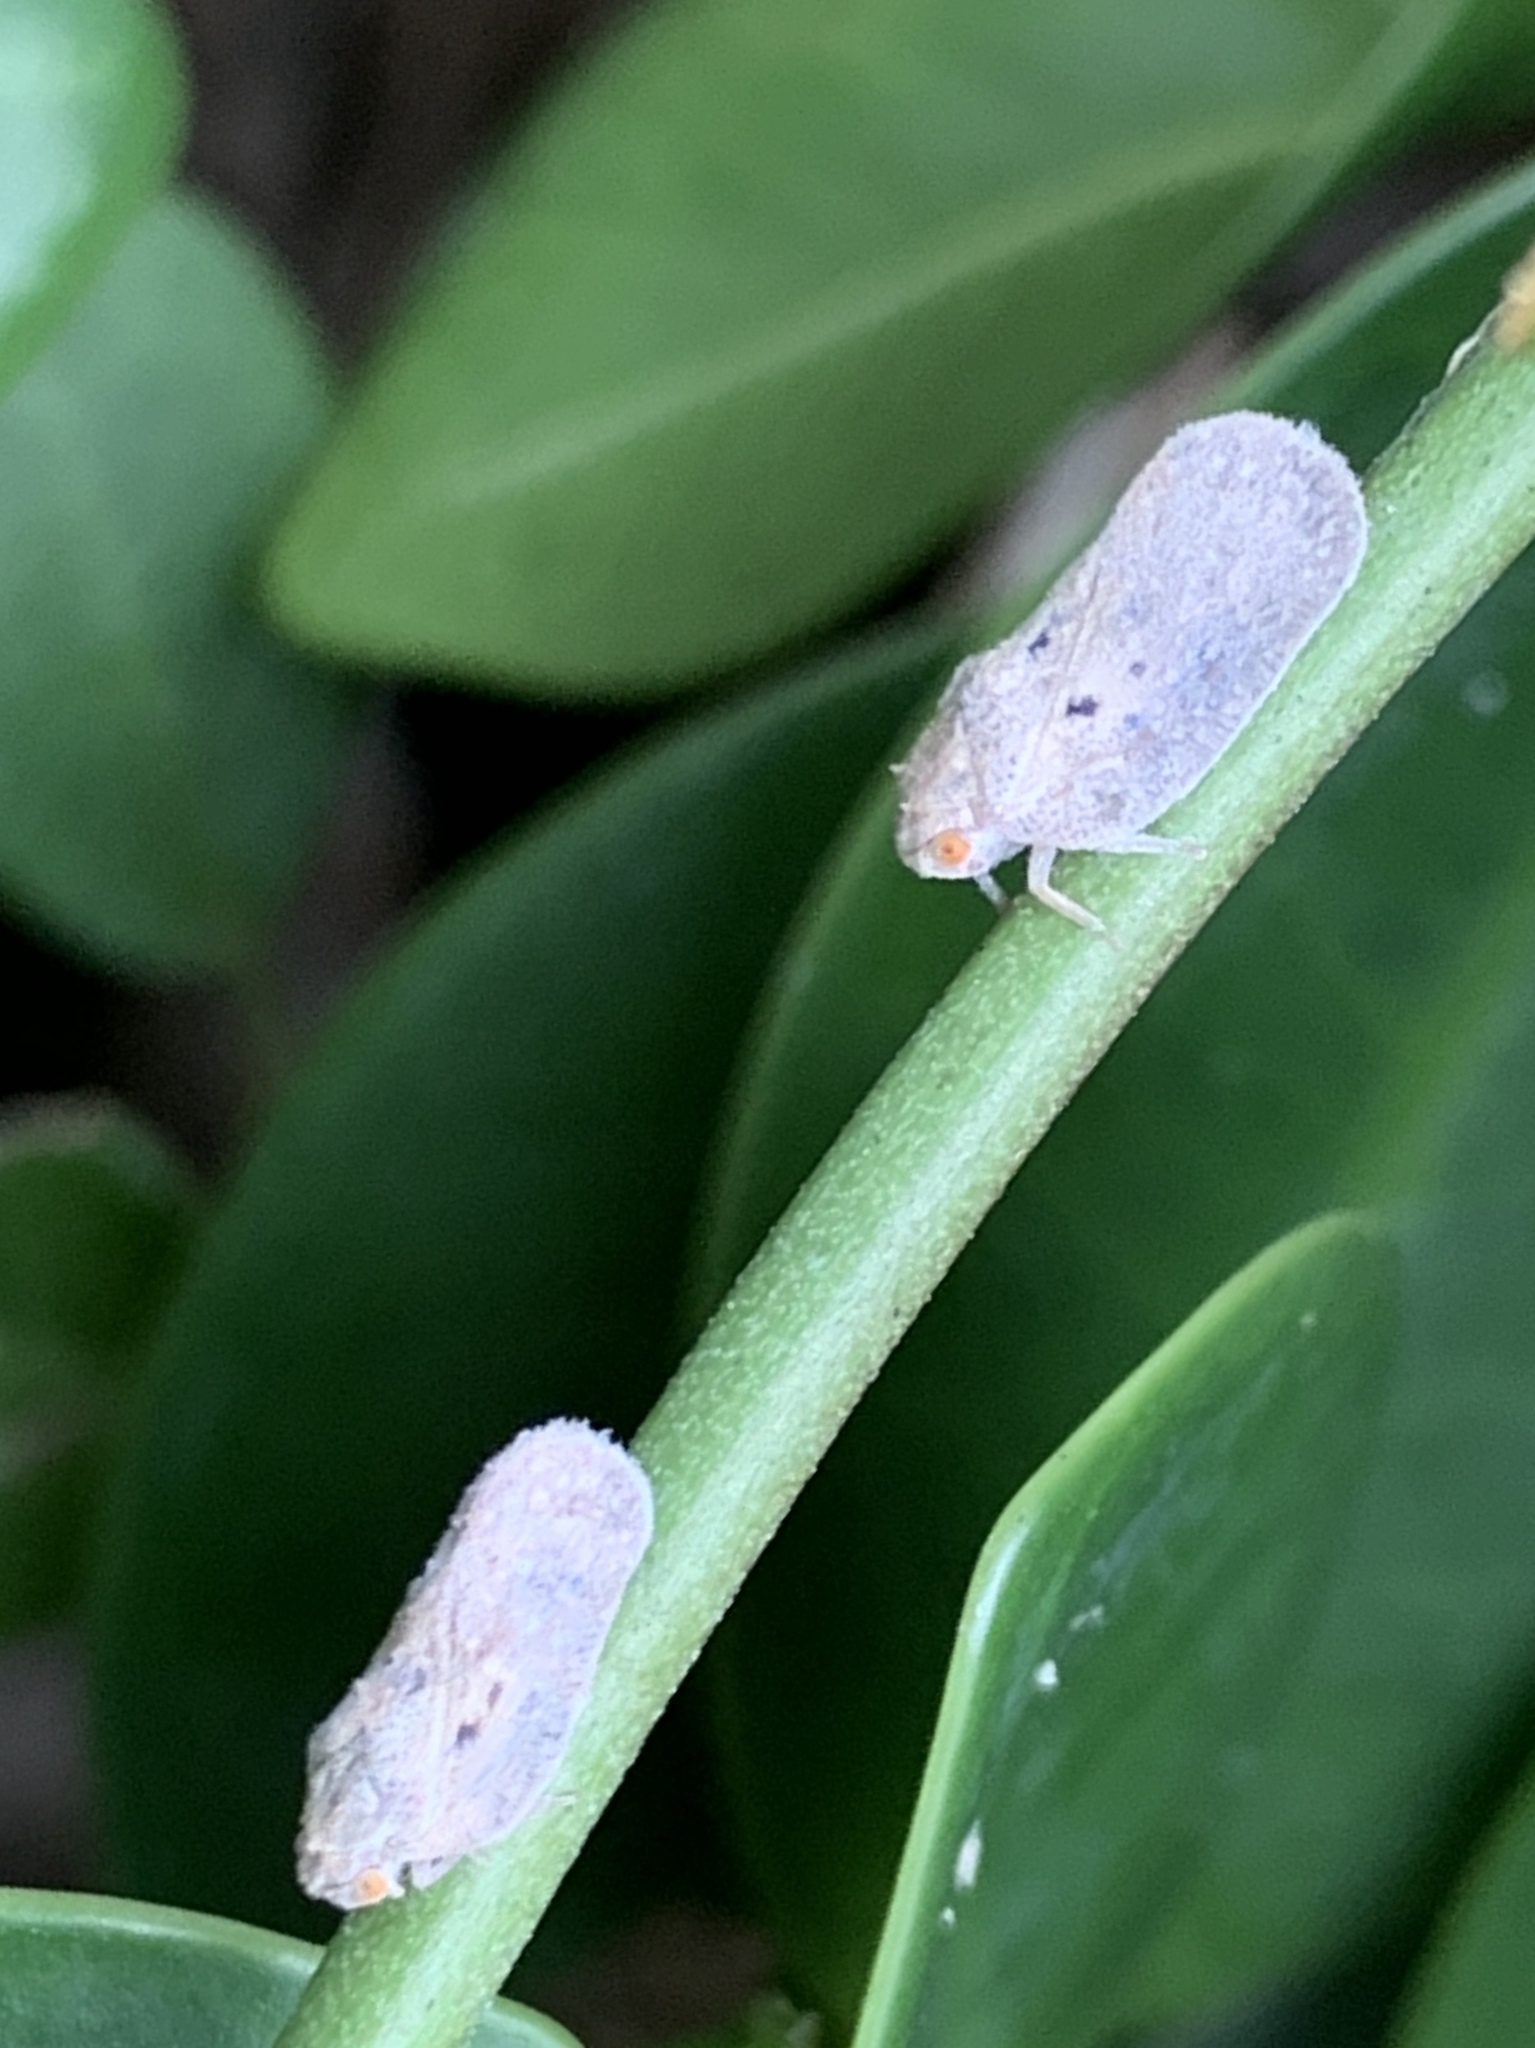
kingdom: Animalia
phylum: Arthropoda
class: Insecta
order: Hemiptera
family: Flatidae
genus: Melormenis
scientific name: Melormenis basalis
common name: Puerto rican planthopper
